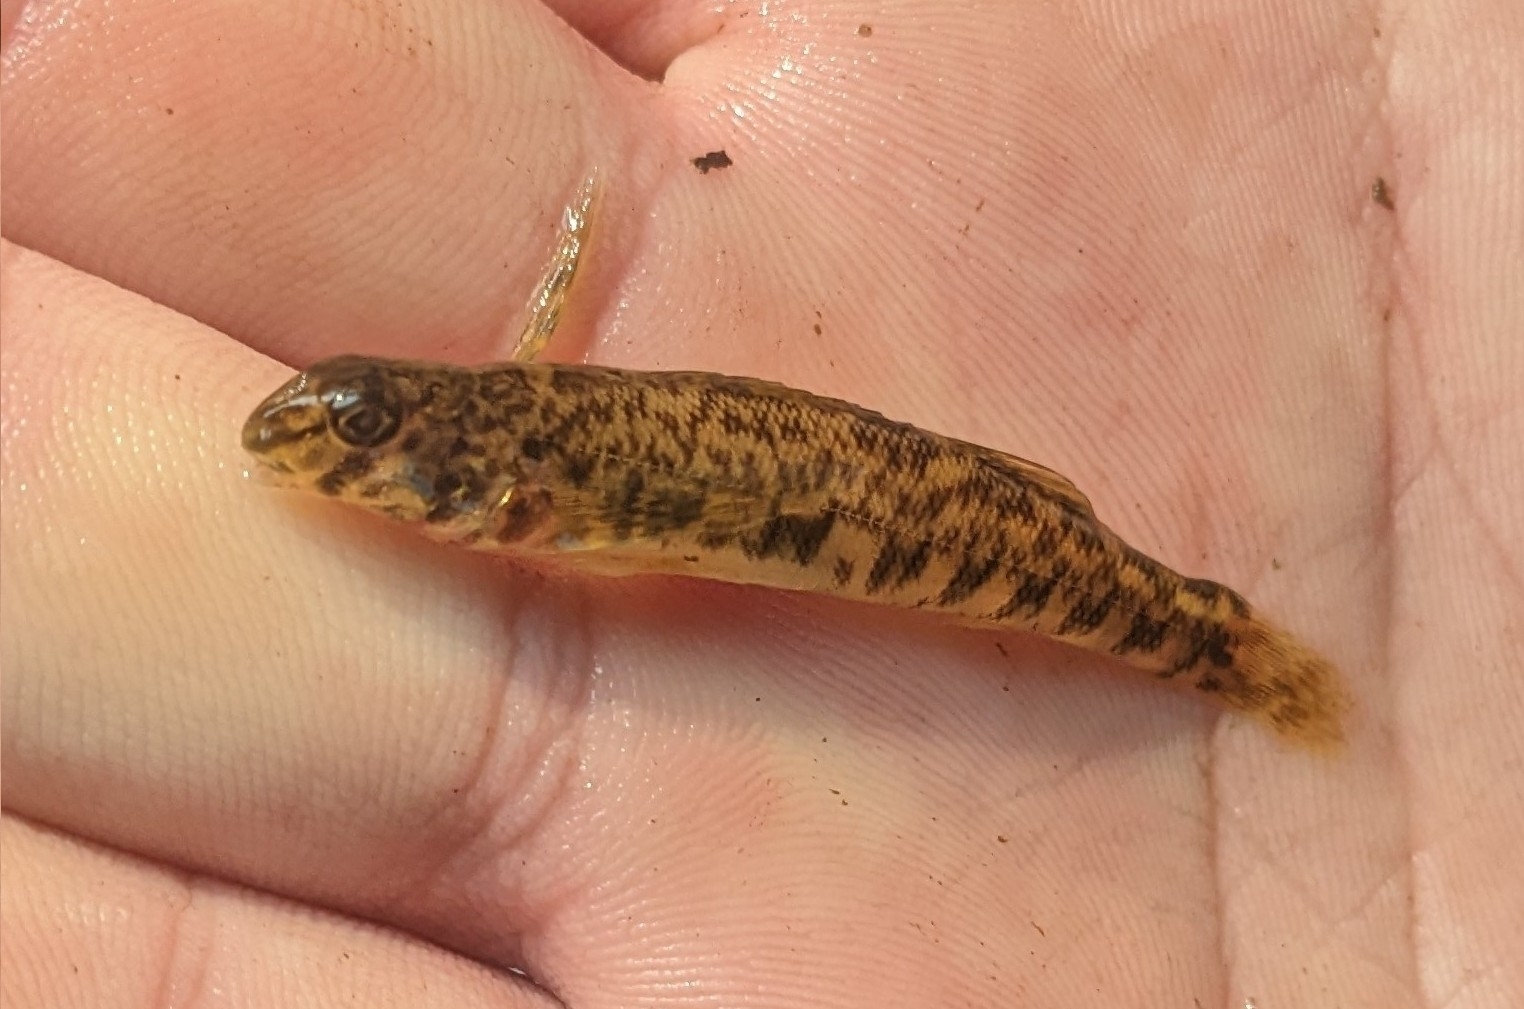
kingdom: Animalia
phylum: Chordata
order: Perciformes
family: Percidae
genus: Etheostoma
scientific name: Etheostoma blennioides
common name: Greenside darter
